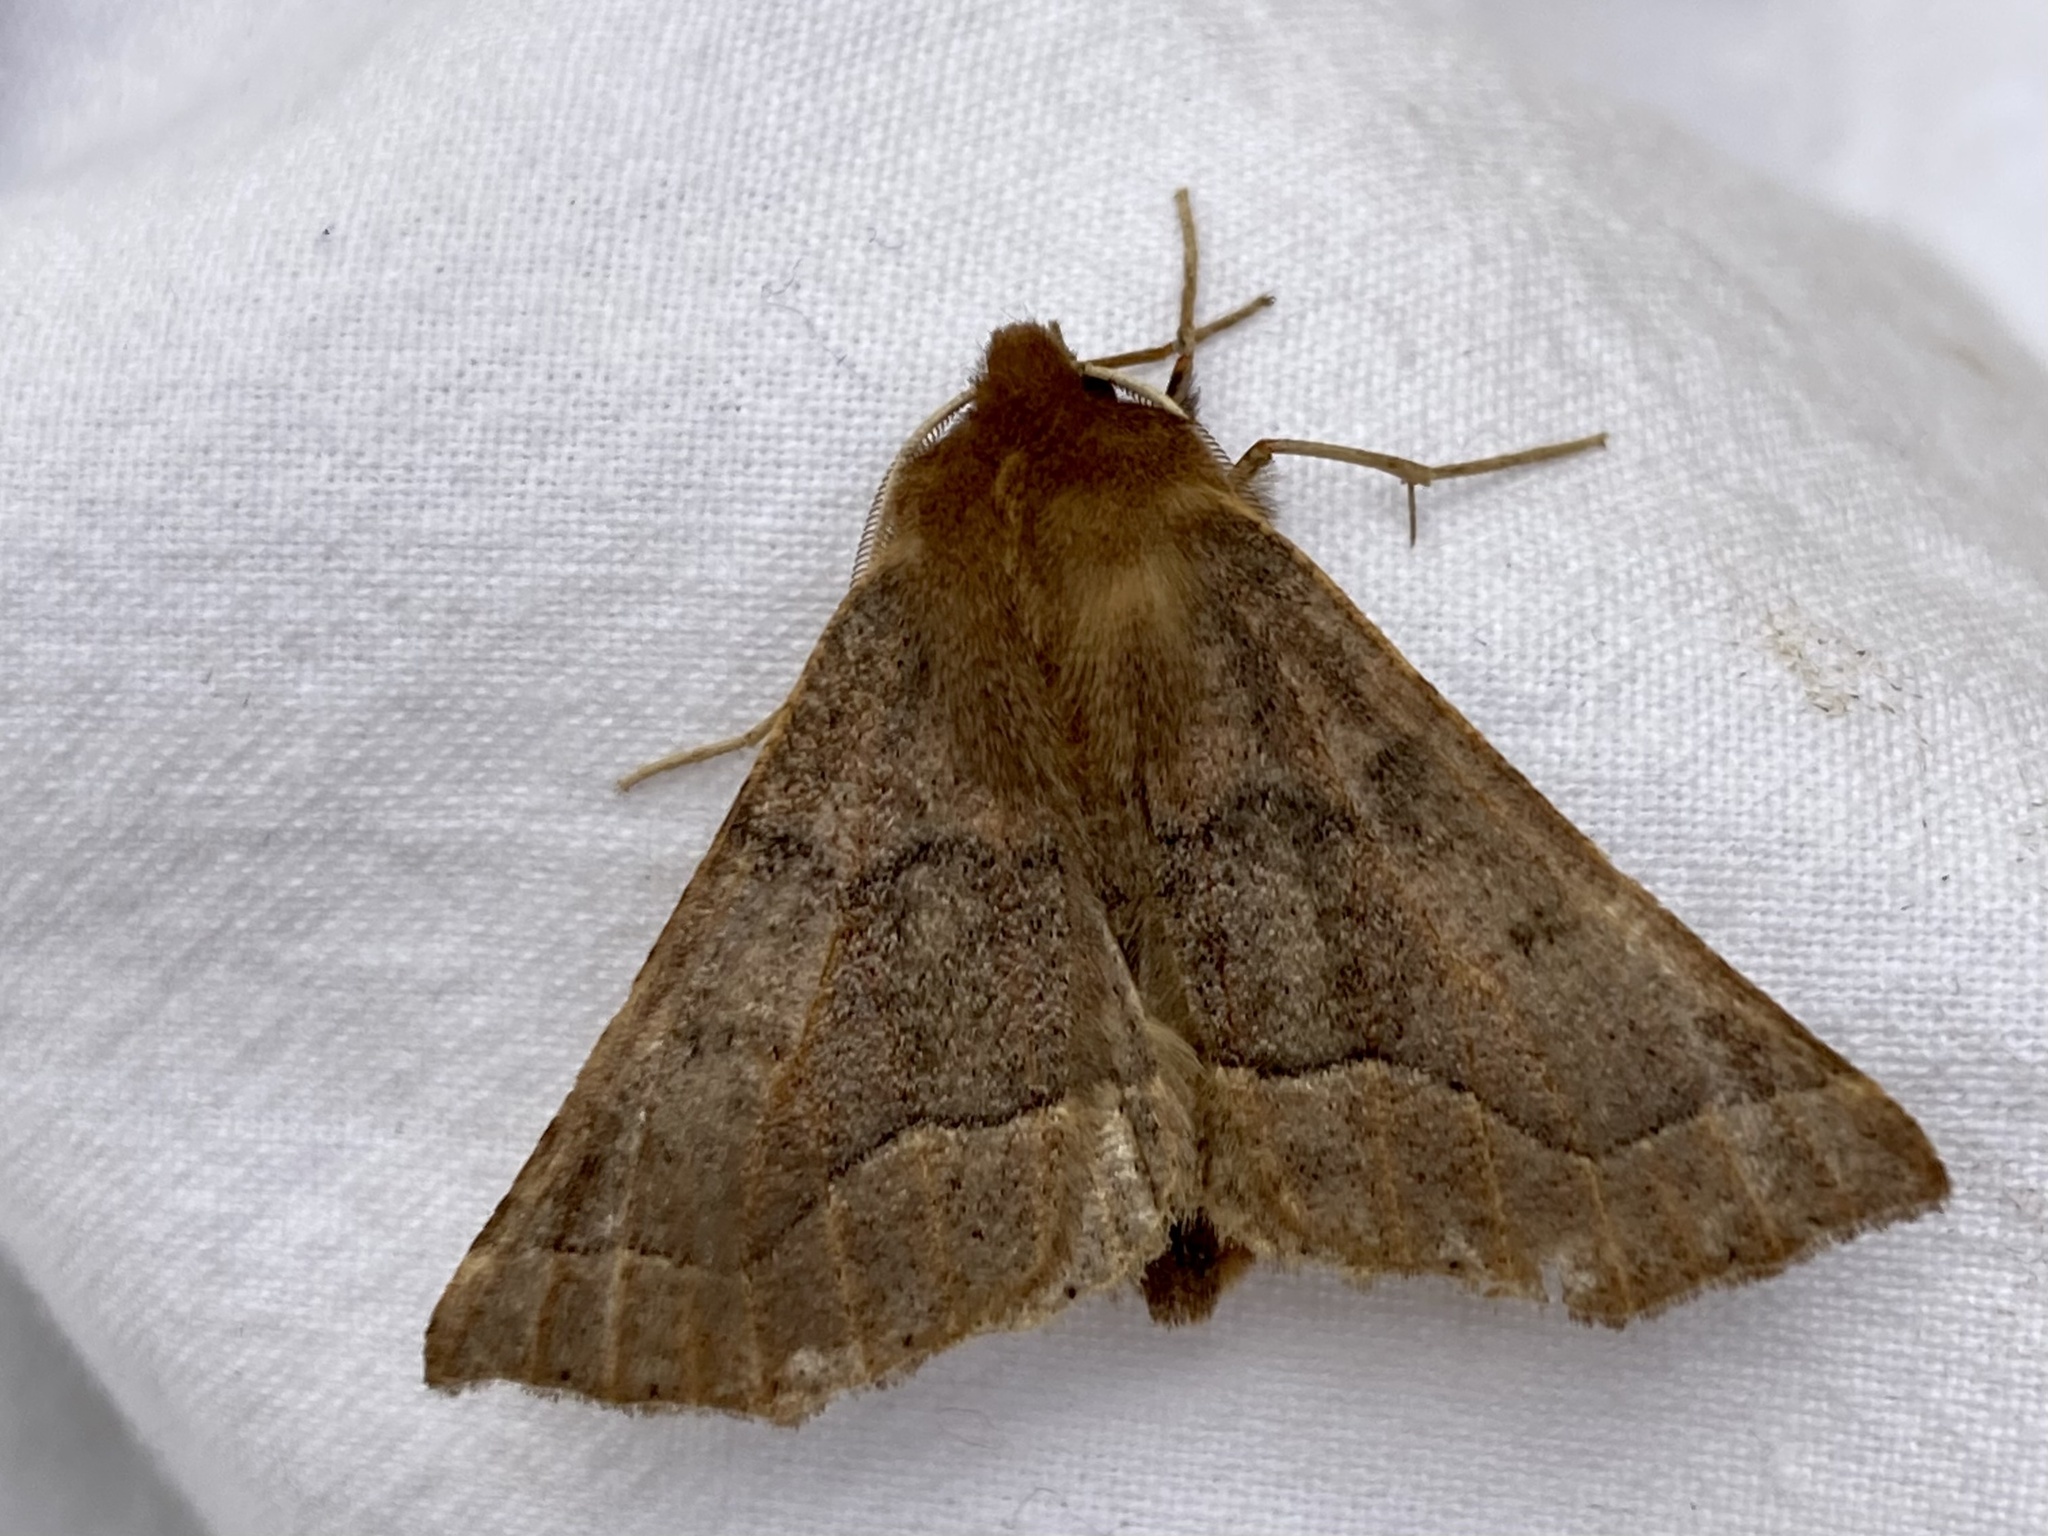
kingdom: Animalia
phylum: Arthropoda
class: Insecta
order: Lepidoptera
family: Geometridae
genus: Crocallis
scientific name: Crocallis tusciaria
